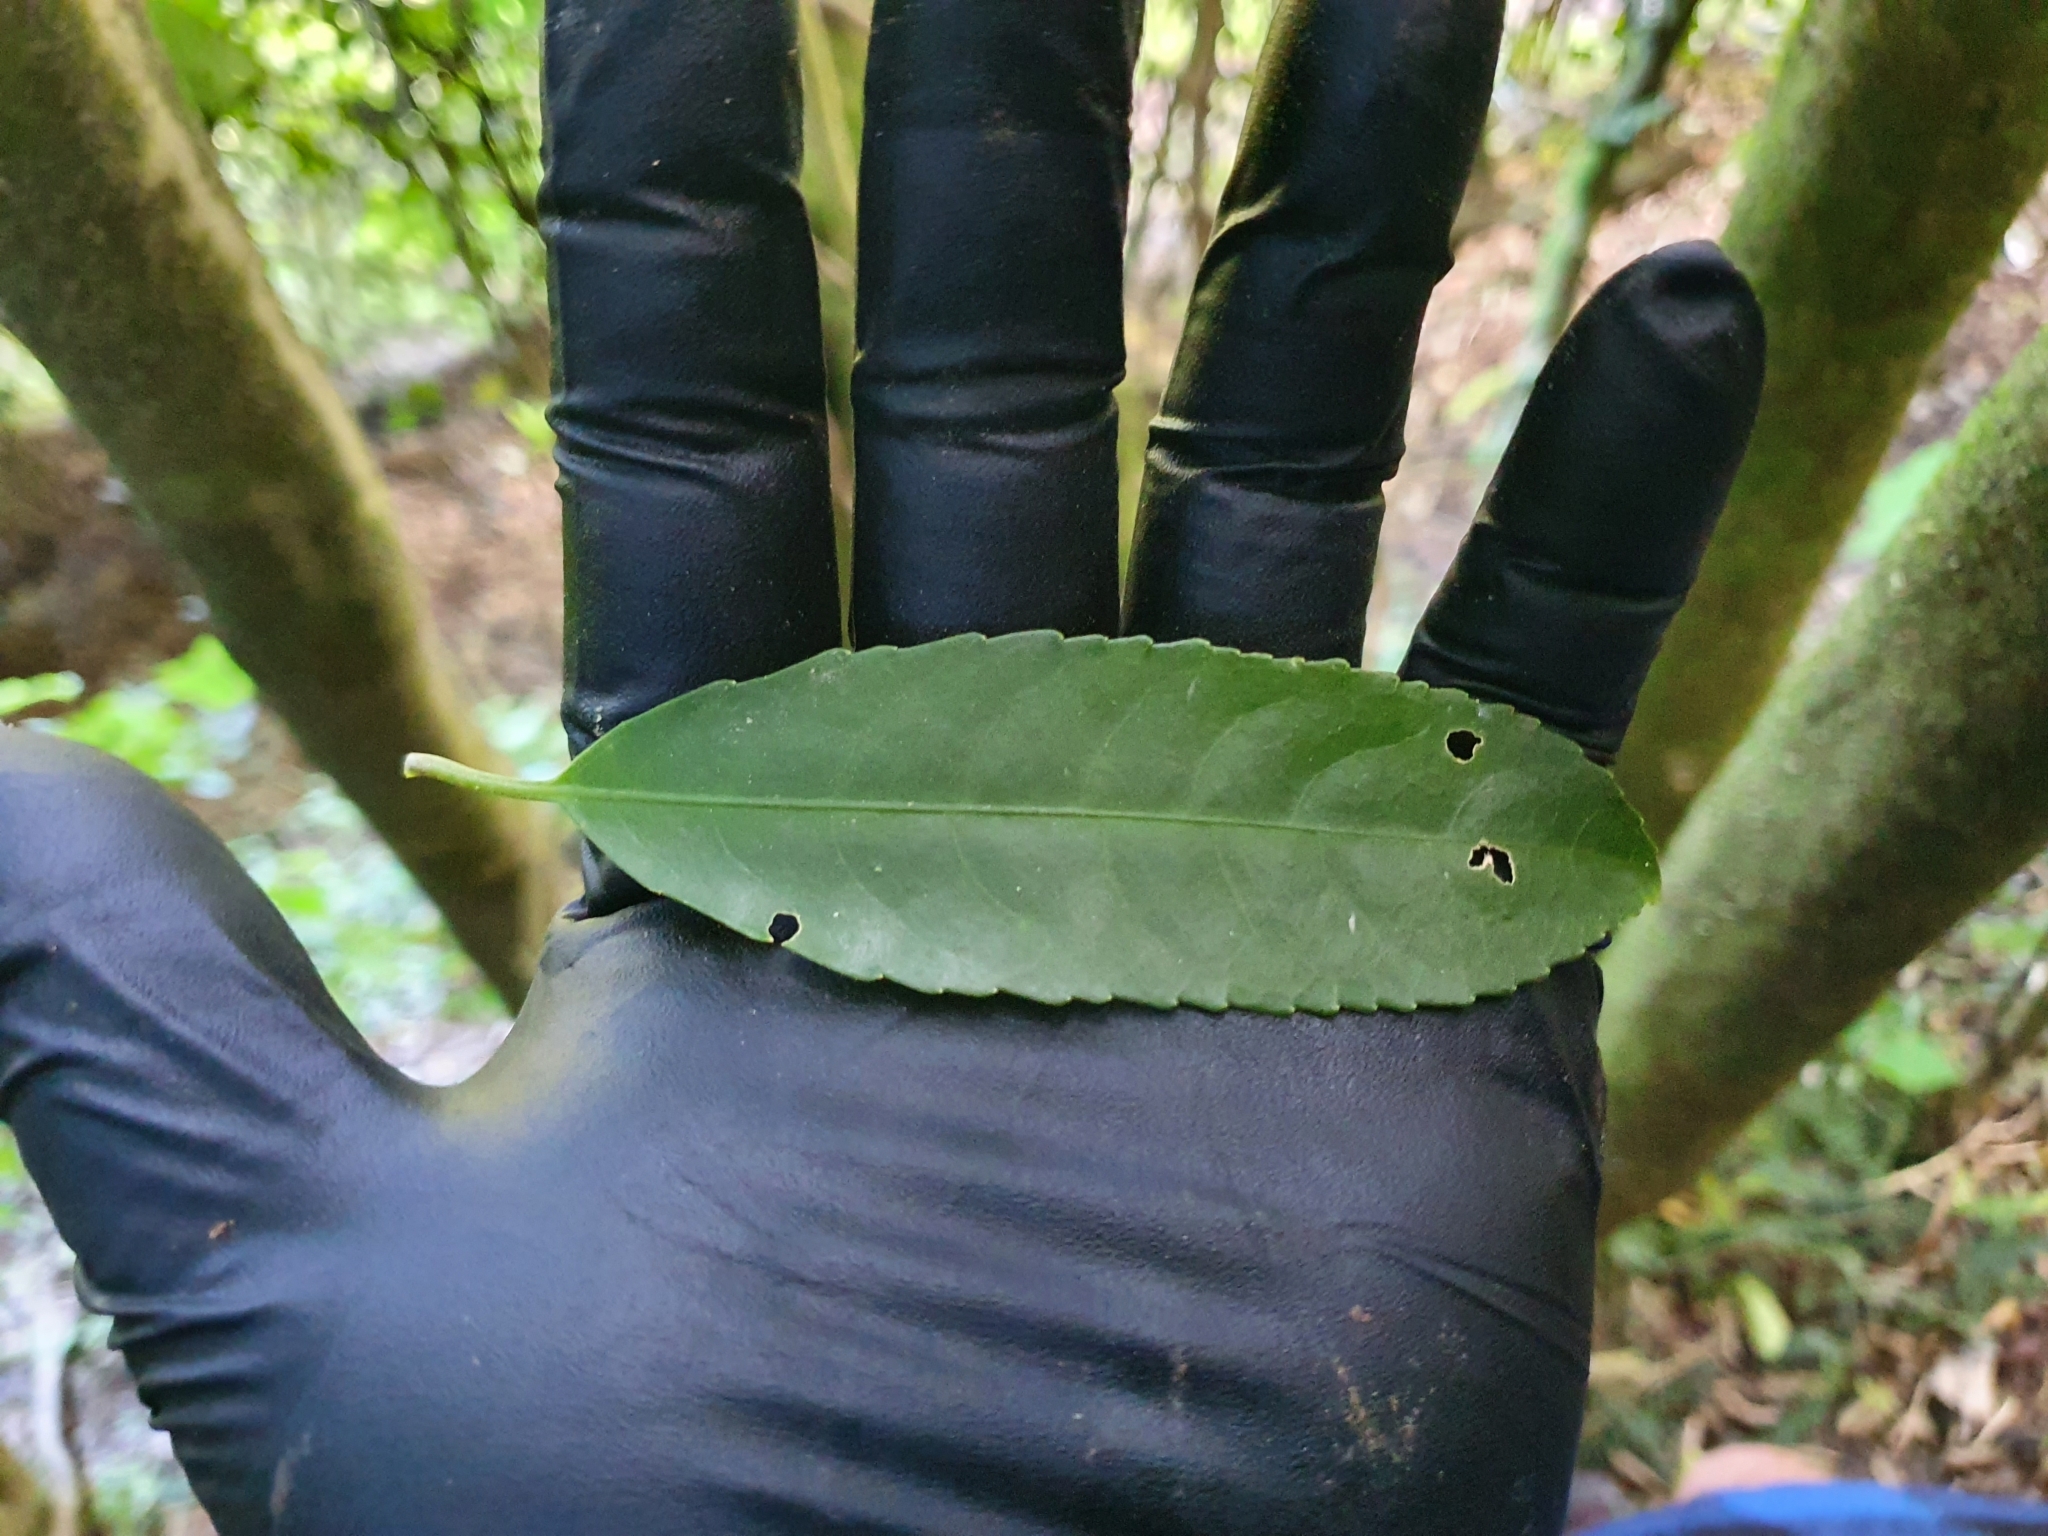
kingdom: Plantae
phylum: Tracheophyta
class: Magnoliopsida
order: Malpighiales
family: Violaceae
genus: Melicytus
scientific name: Melicytus ramiflorus
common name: Mahoe
